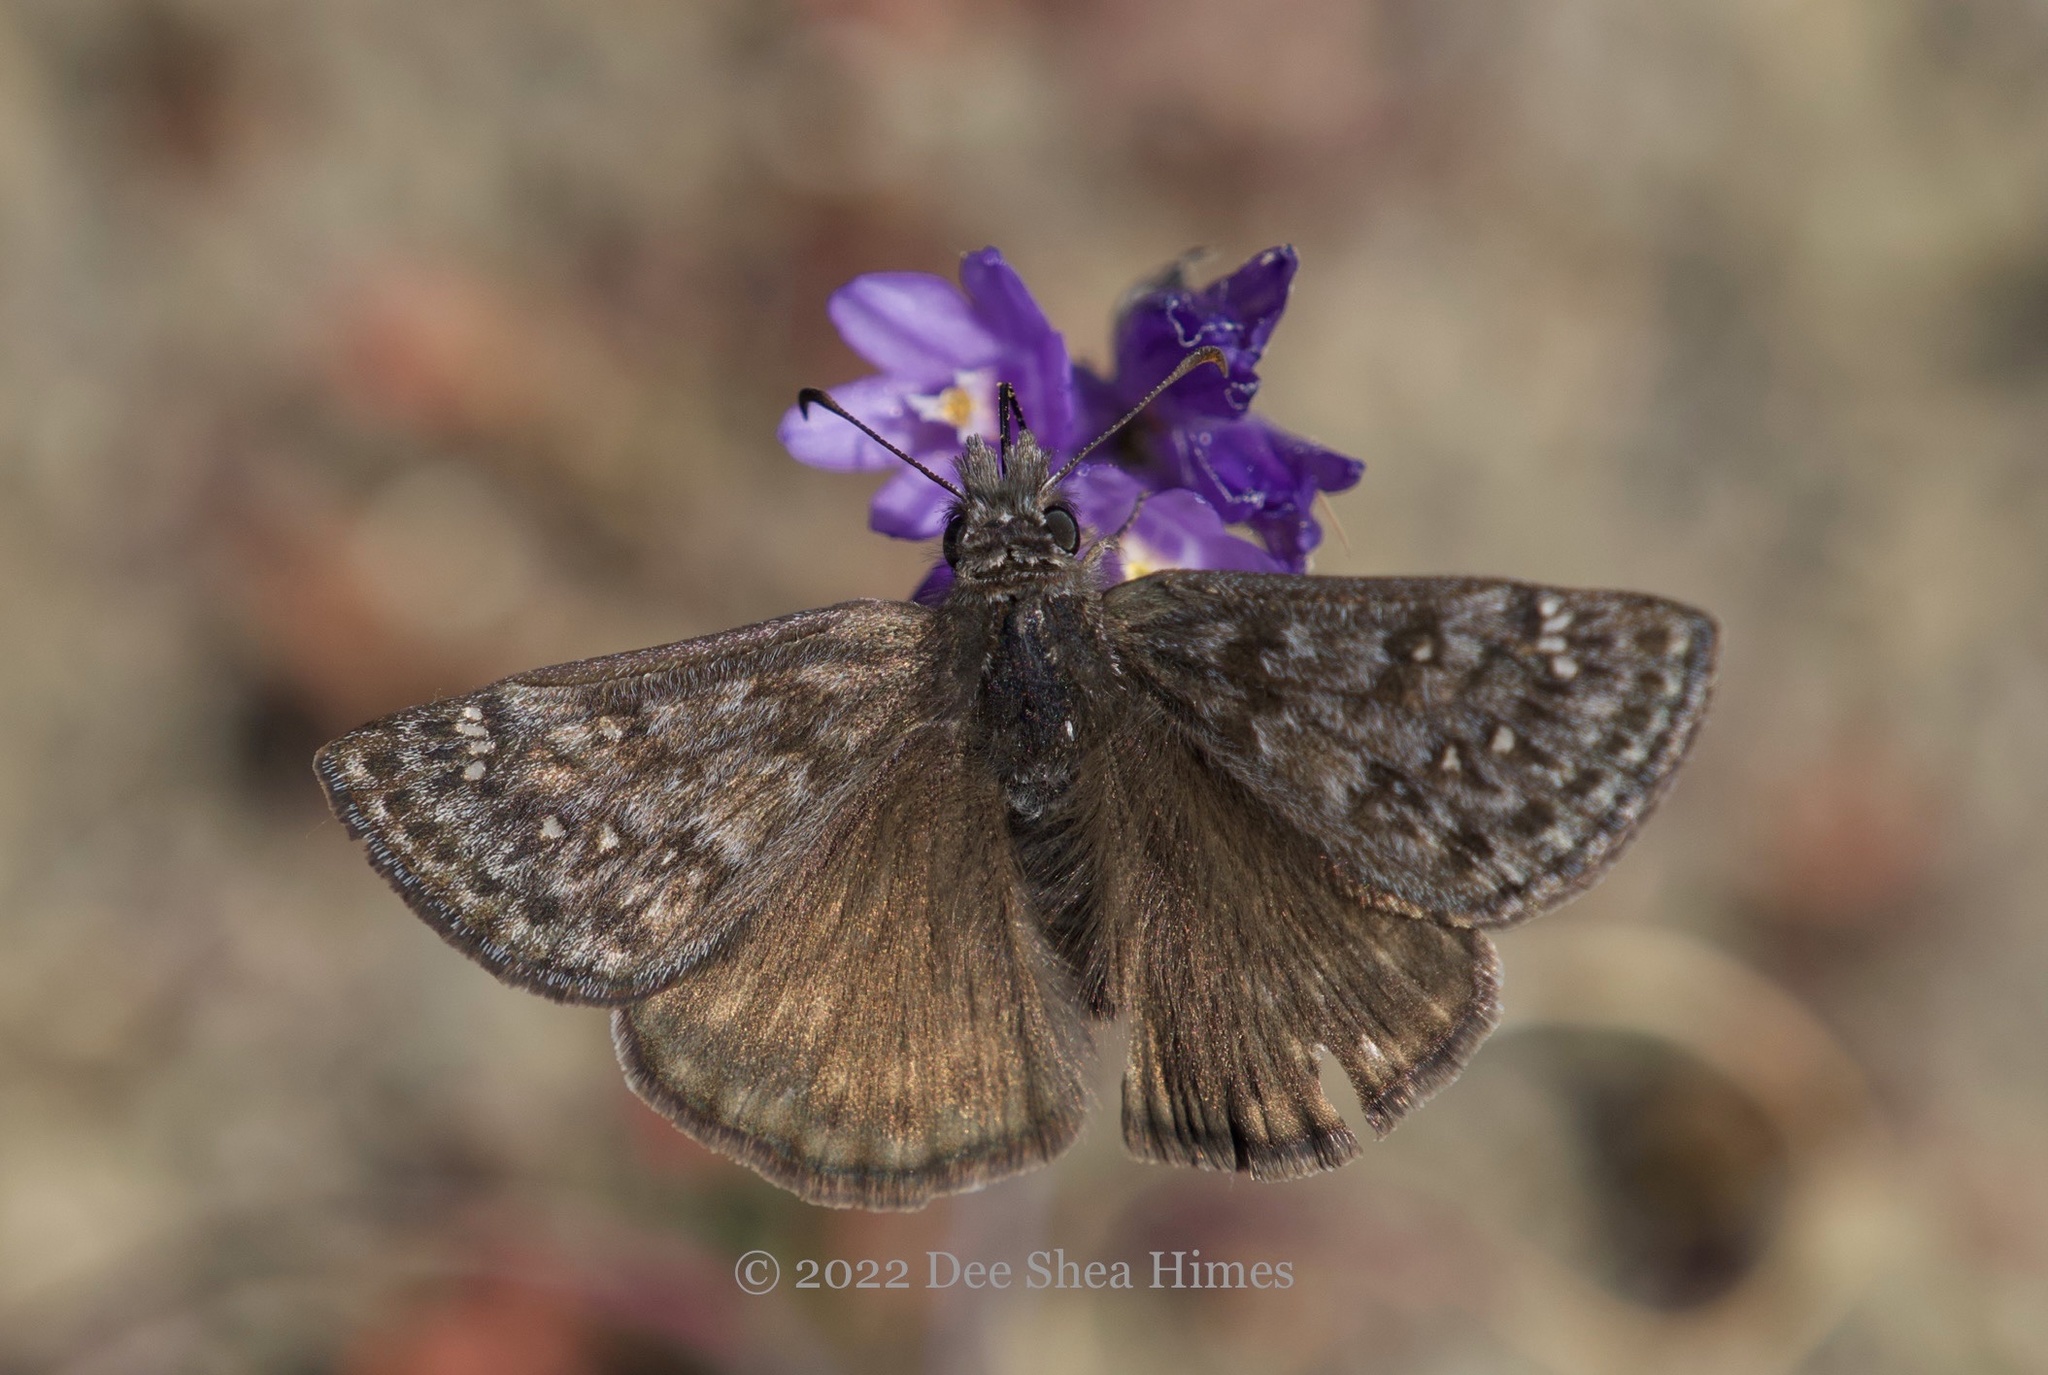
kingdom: Animalia
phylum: Arthropoda
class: Insecta
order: Lepidoptera
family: Hesperiidae
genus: Erynnis
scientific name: Erynnis propertius
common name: Propertius duskywing
